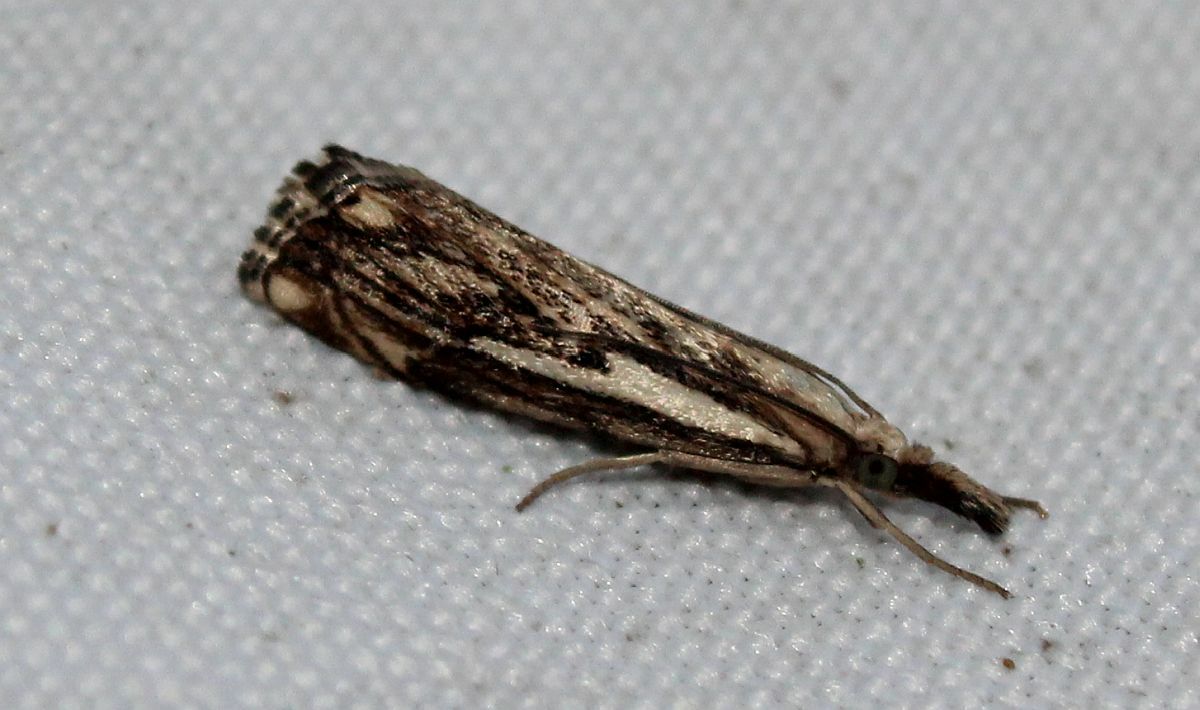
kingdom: Animalia
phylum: Arthropoda
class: Insecta
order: Lepidoptera
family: Crambidae
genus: Catoptria
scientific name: Catoptria falsella
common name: Chequered grass-veneer
